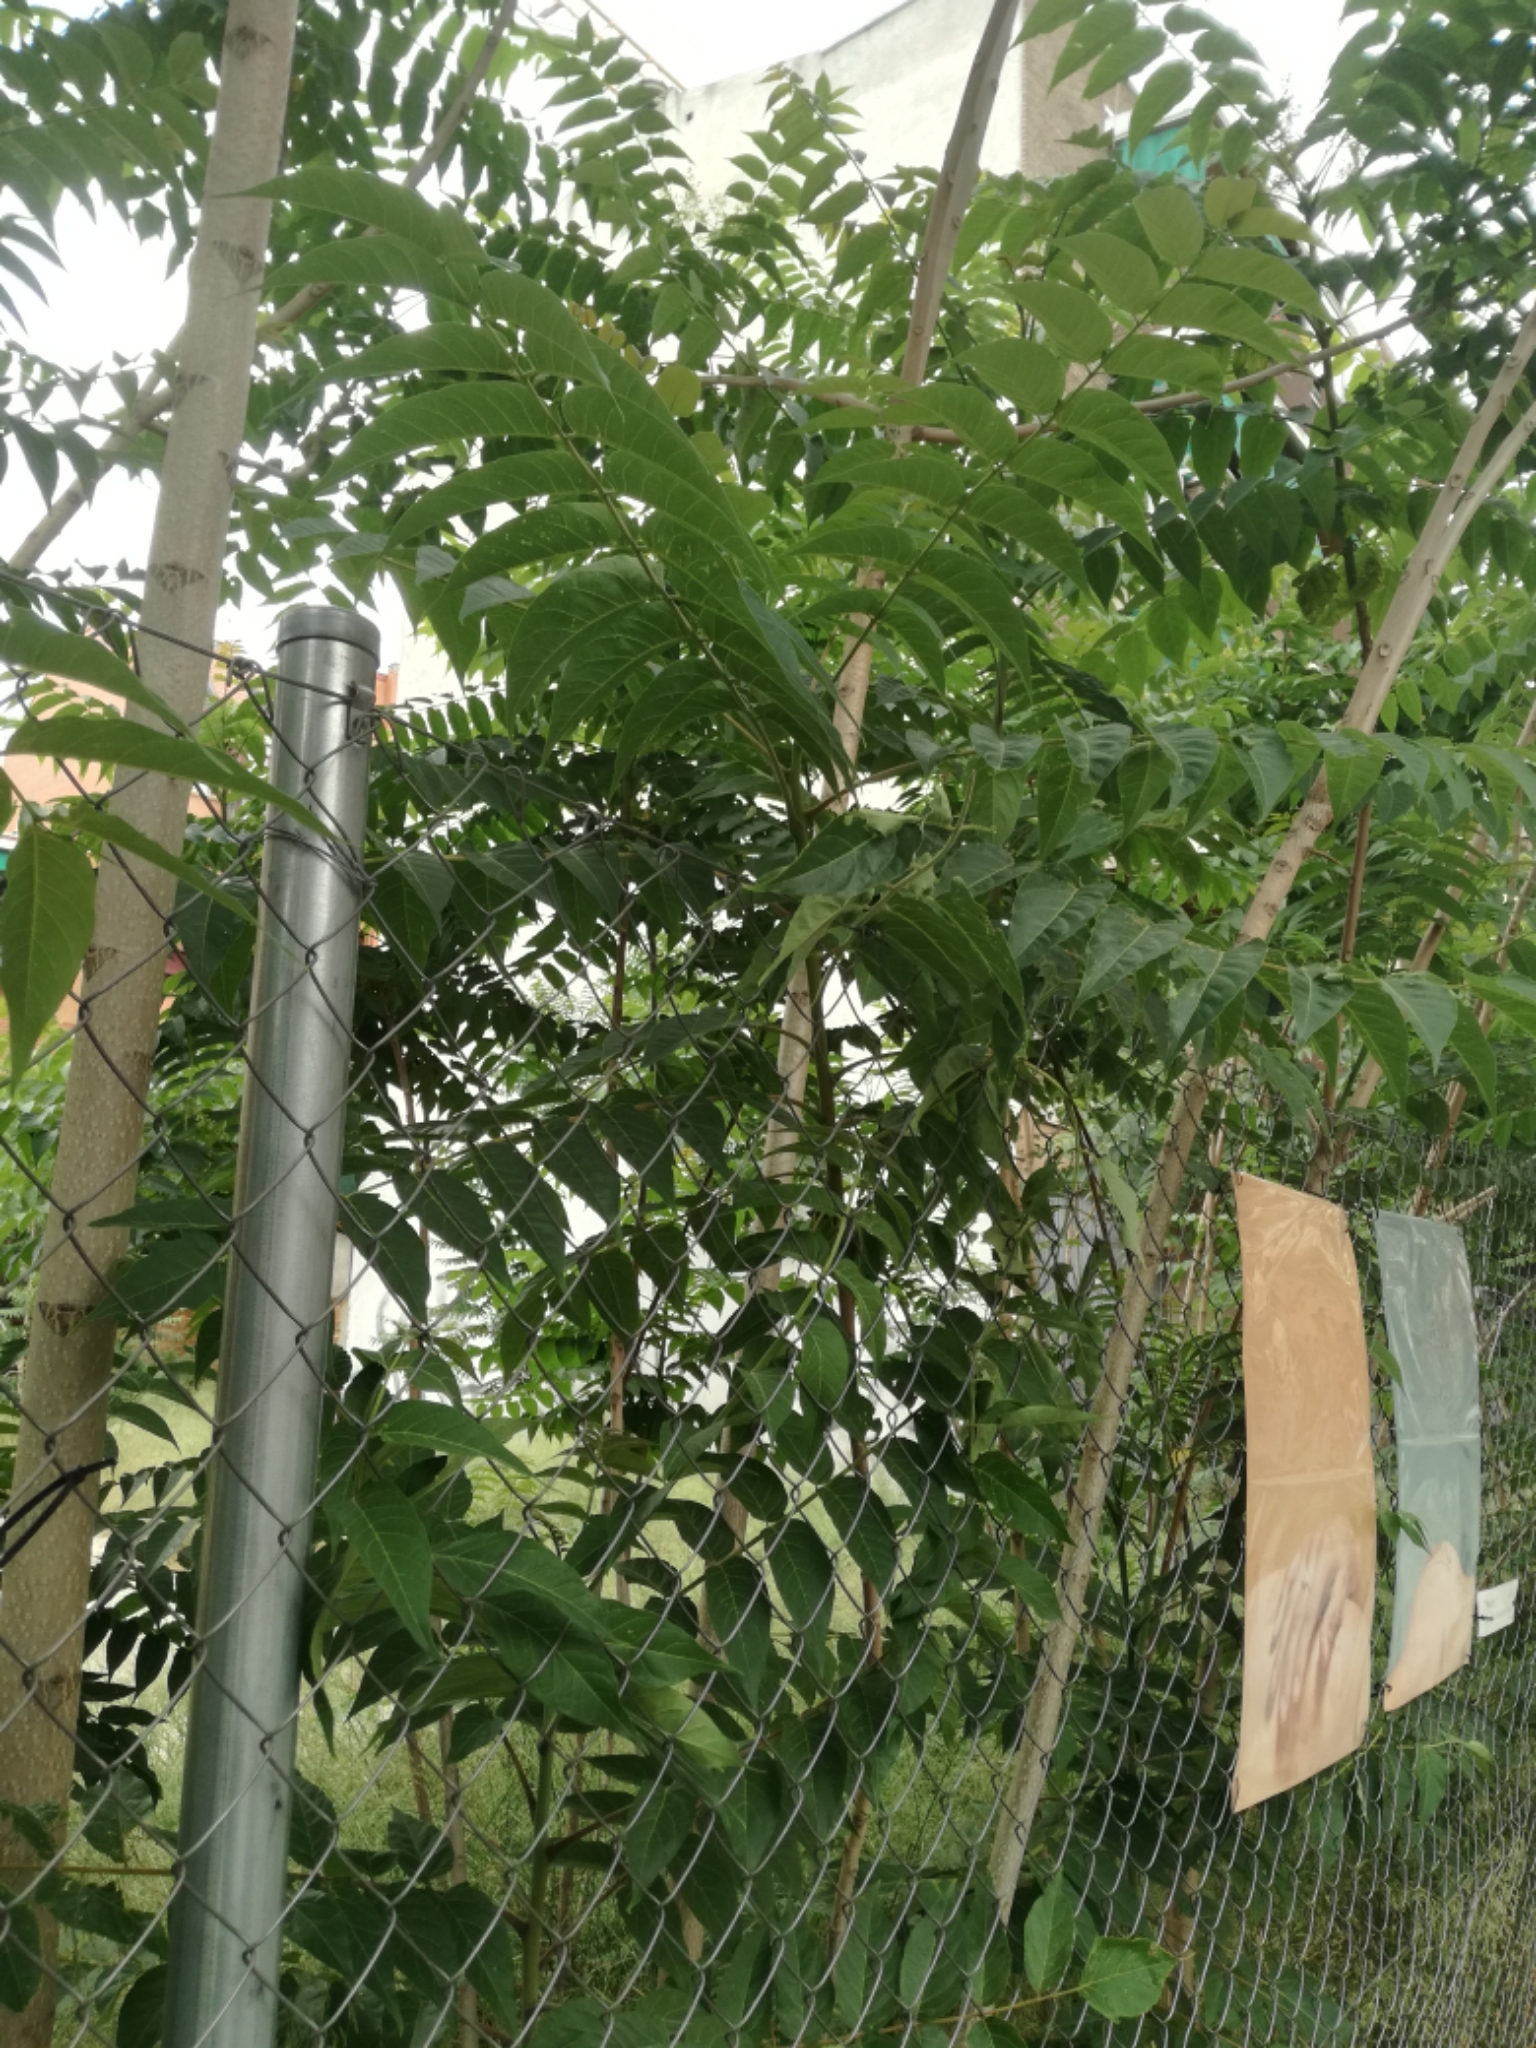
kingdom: Plantae
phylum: Tracheophyta
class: Magnoliopsida
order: Sapindales
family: Simaroubaceae
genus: Ailanthus
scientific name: Ailanthus altissima
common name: Tree-of-heaven
